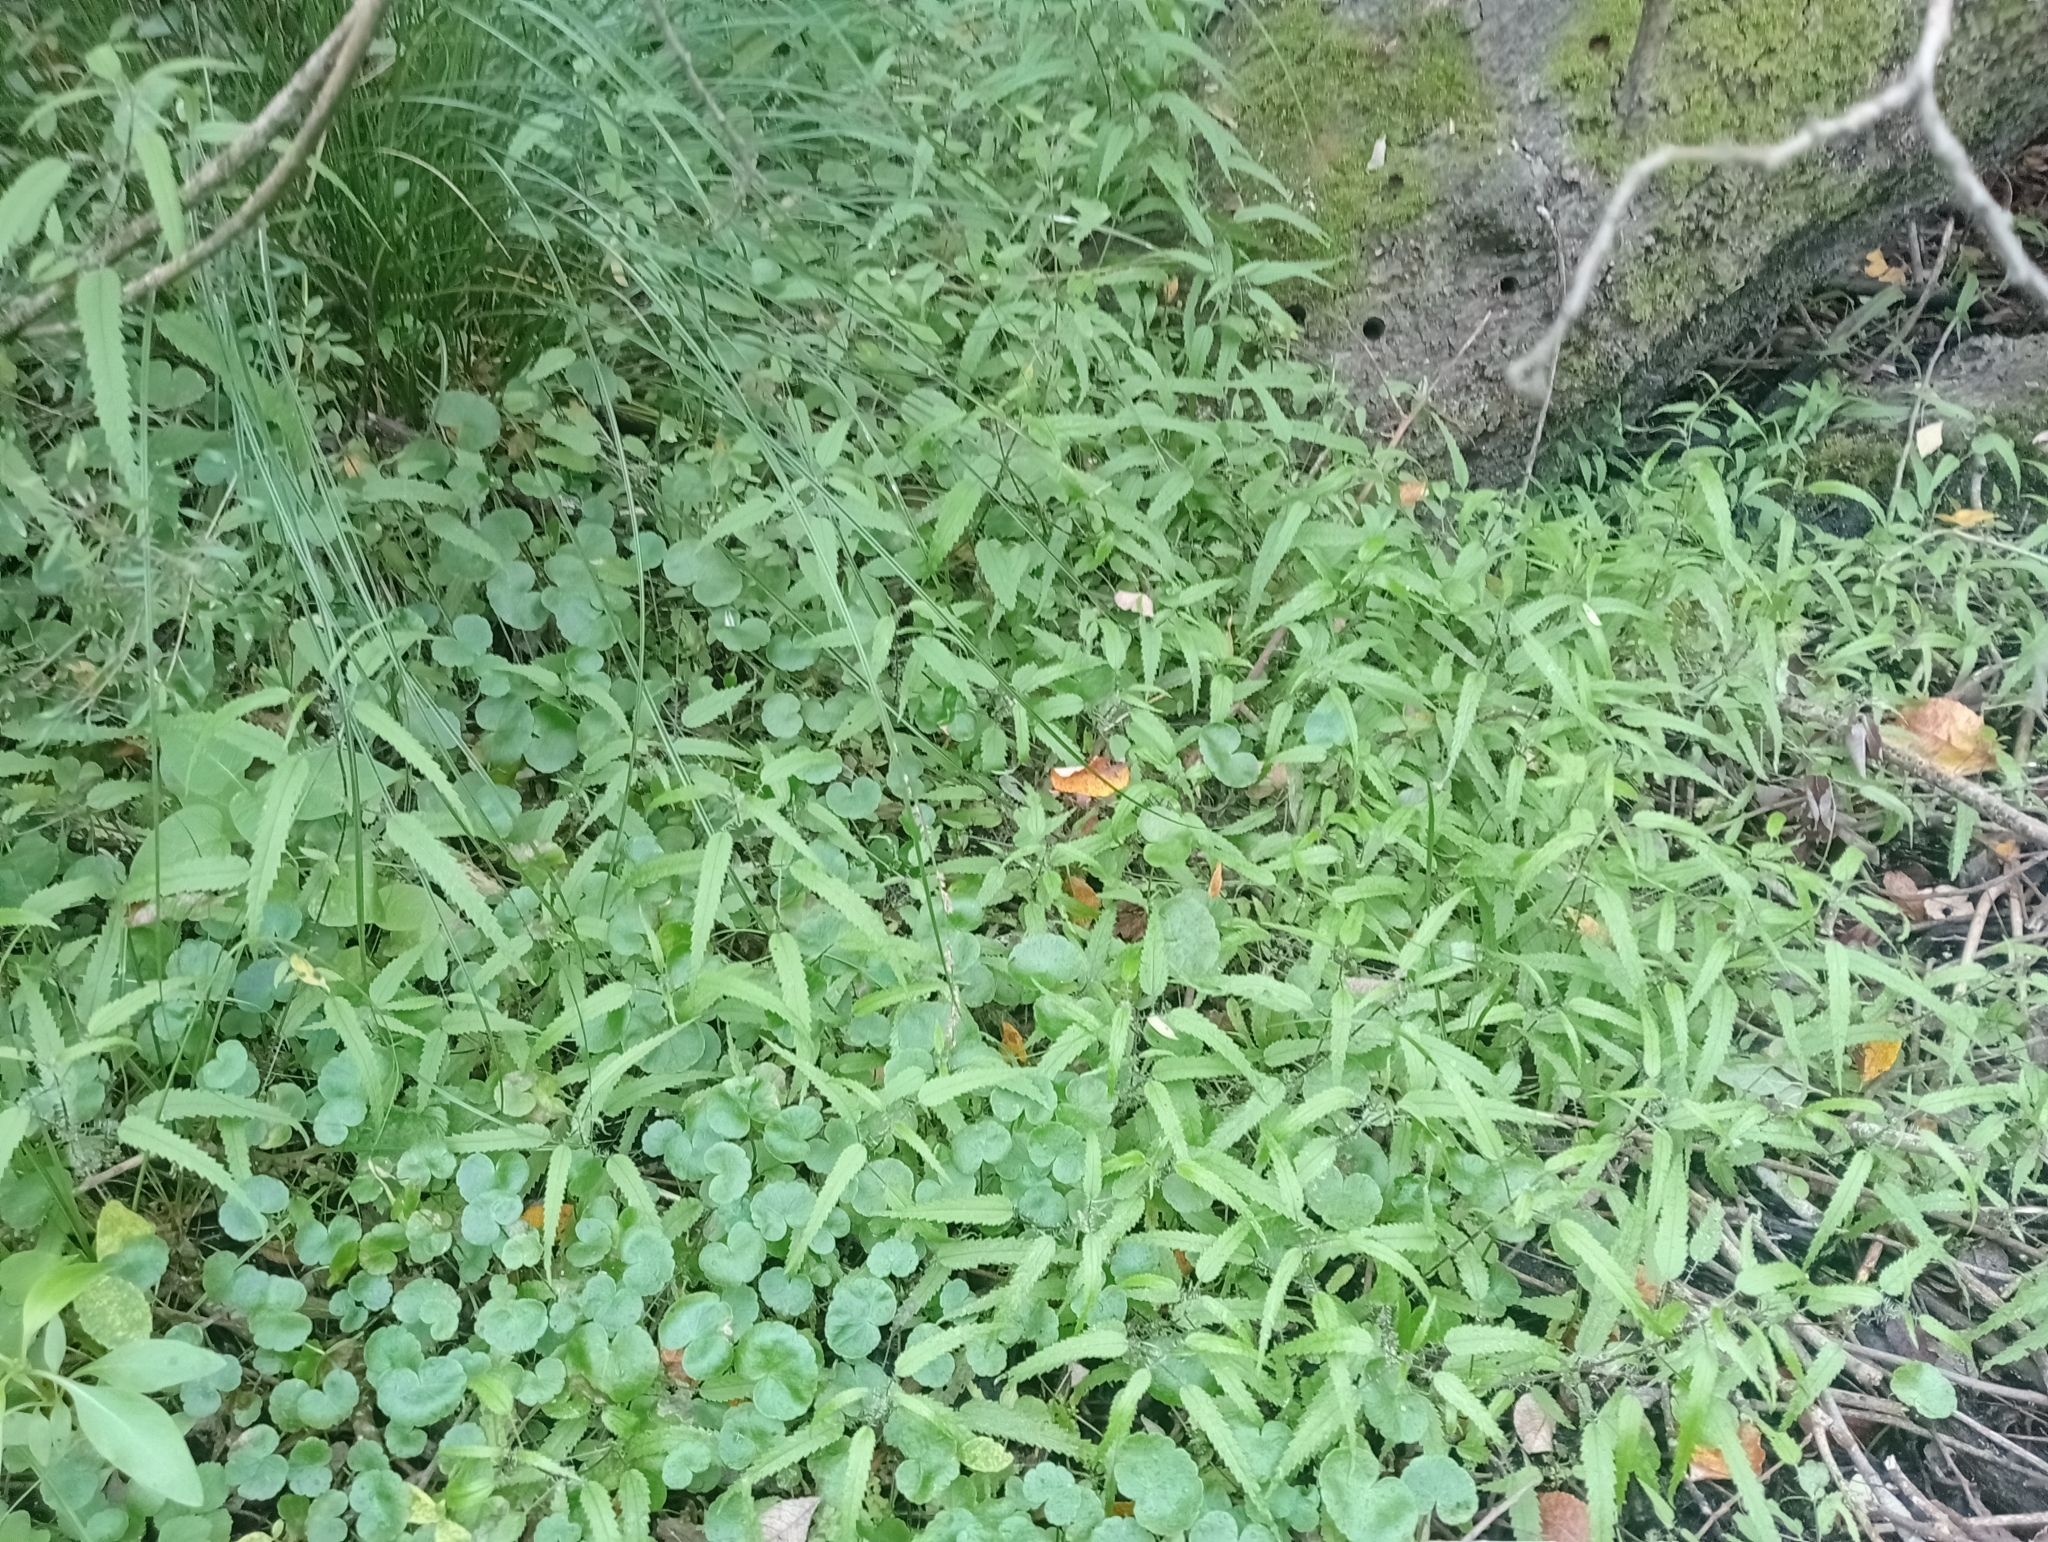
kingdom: Plantae
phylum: Tracheophyta
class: Magnoliopsida
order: Rosales
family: Urticaceae
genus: Urtica
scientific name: Urtica perconfusa
